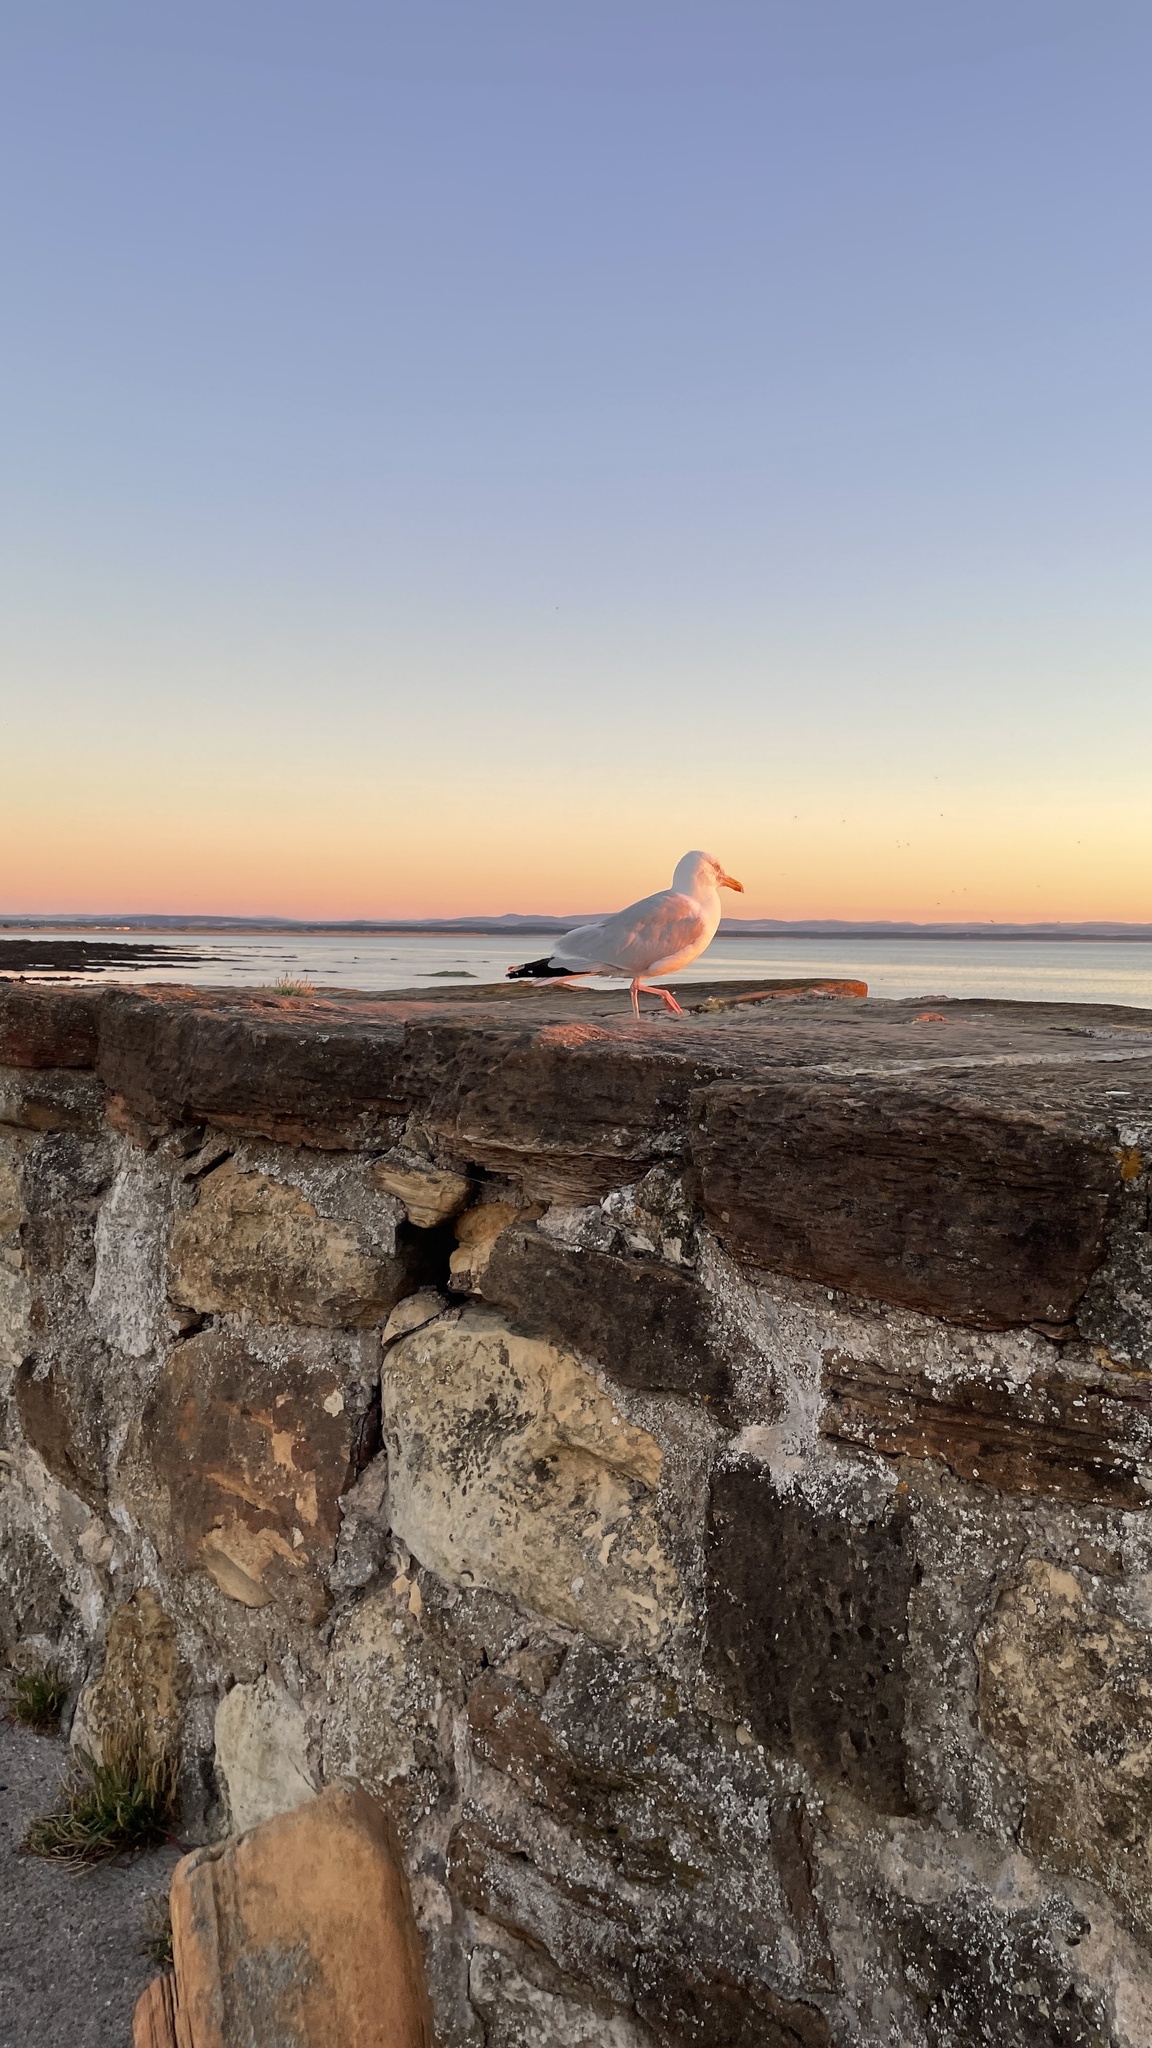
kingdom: Animalia
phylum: Chordata
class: Aves
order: Charadriiformes
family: Laridae
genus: Larus
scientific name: Larus argentatus
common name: Herring gull
